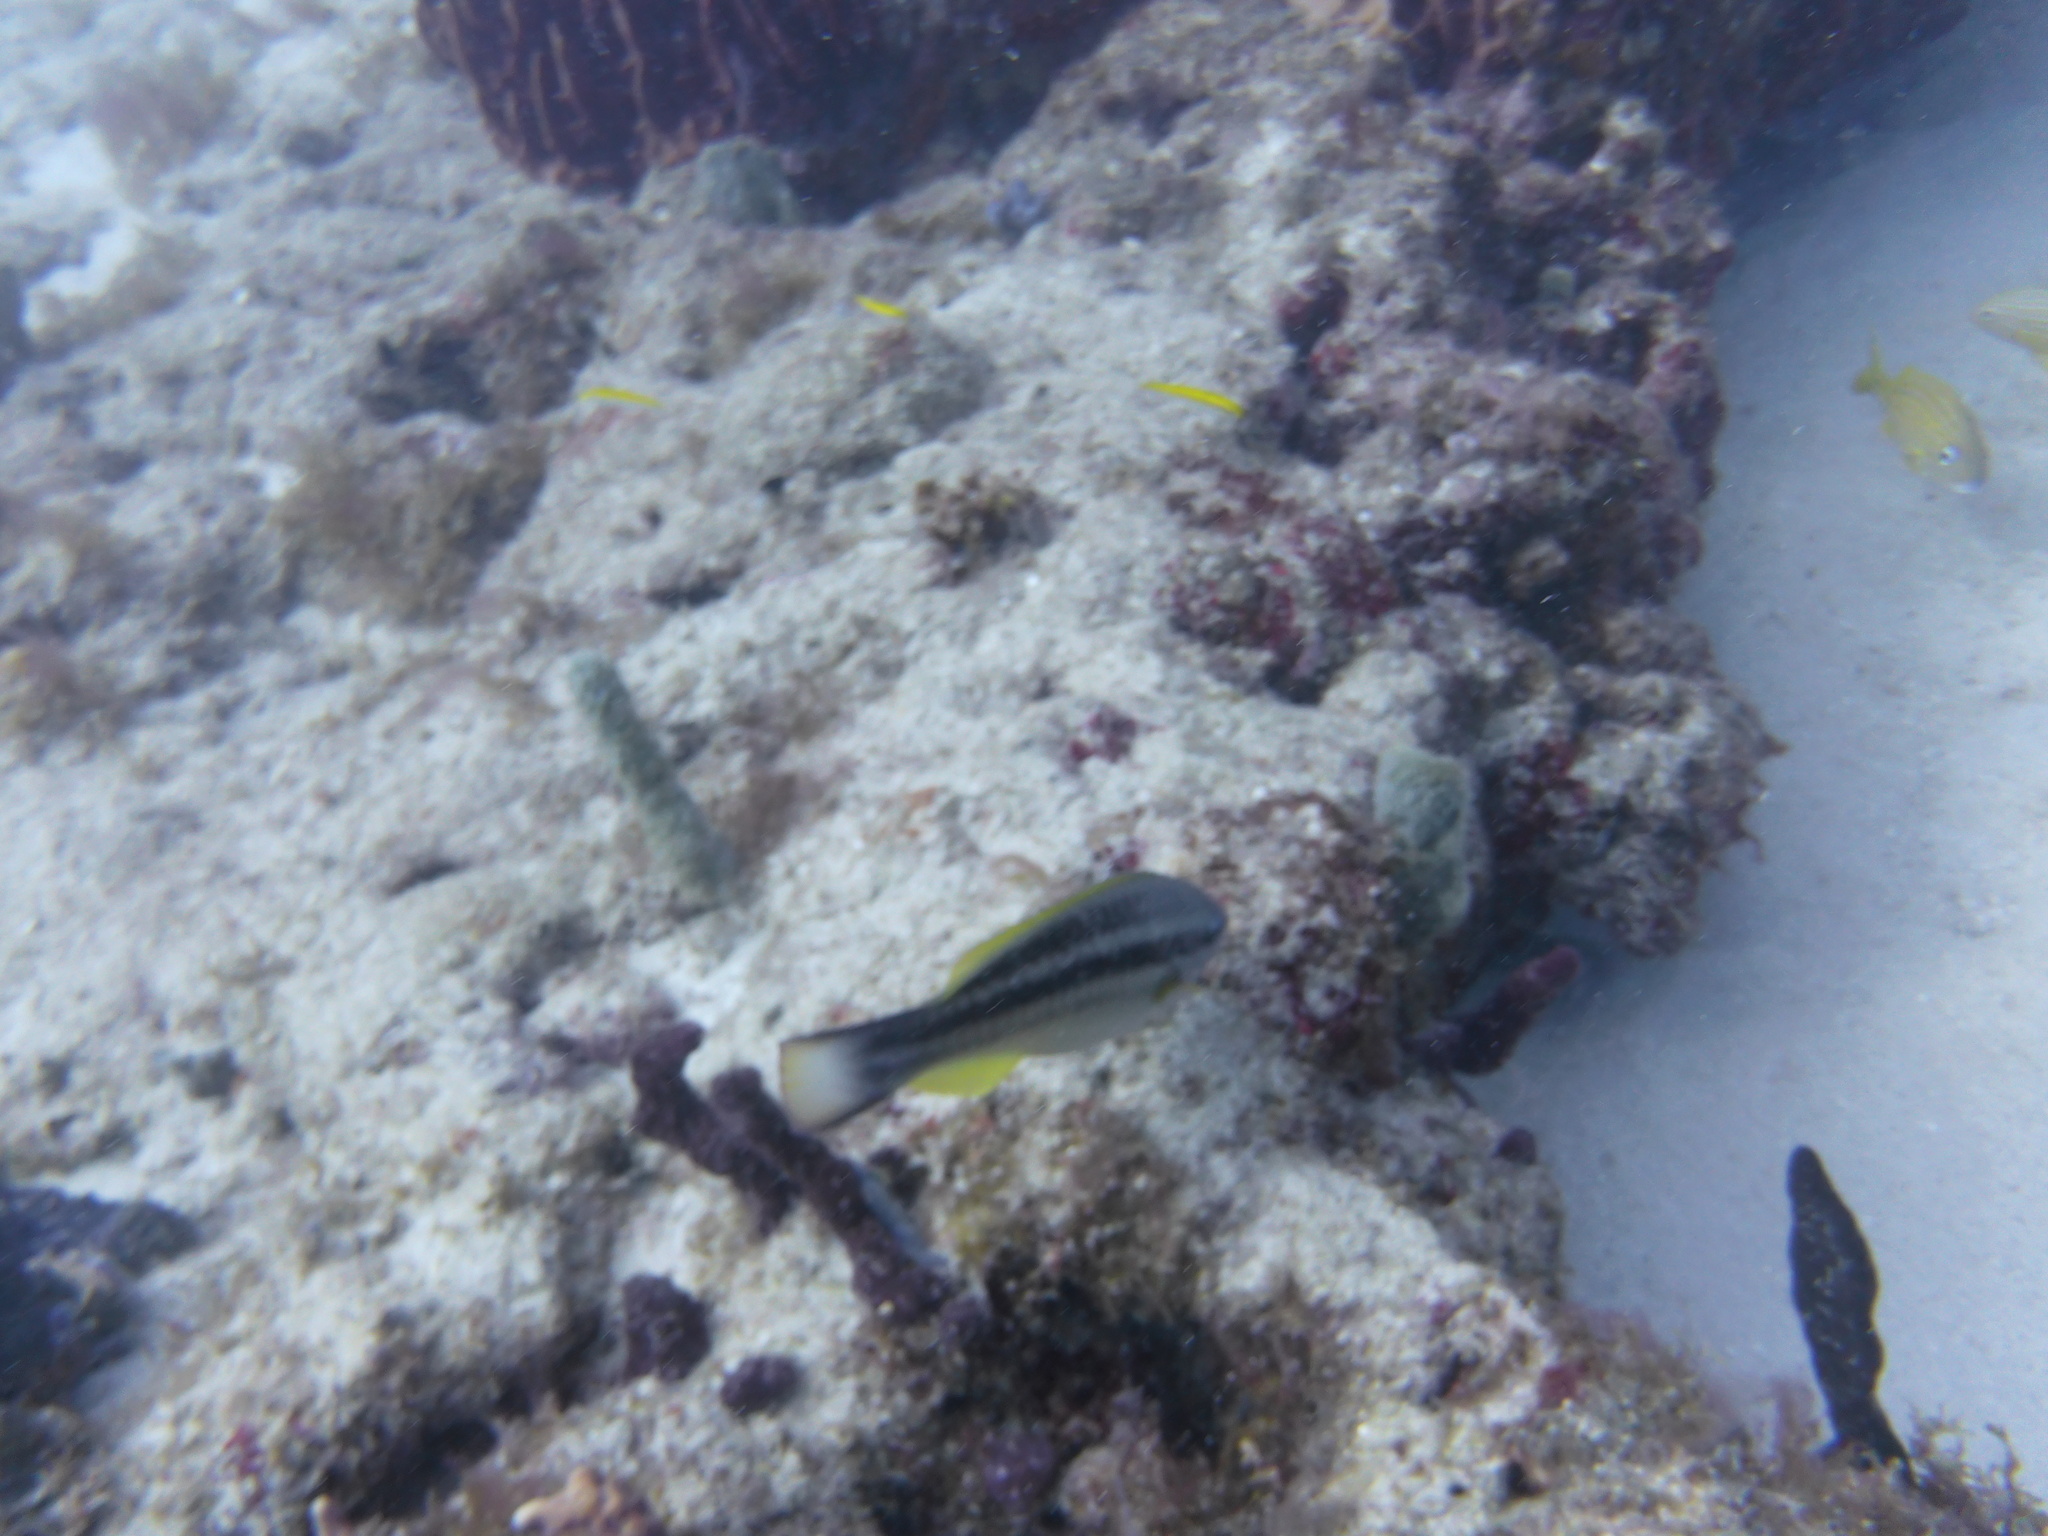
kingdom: Animalia
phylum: Chordata
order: Perciformes
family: Scaridae
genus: Scarus
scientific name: Scarus taeniopterus
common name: Princess parrotfish
